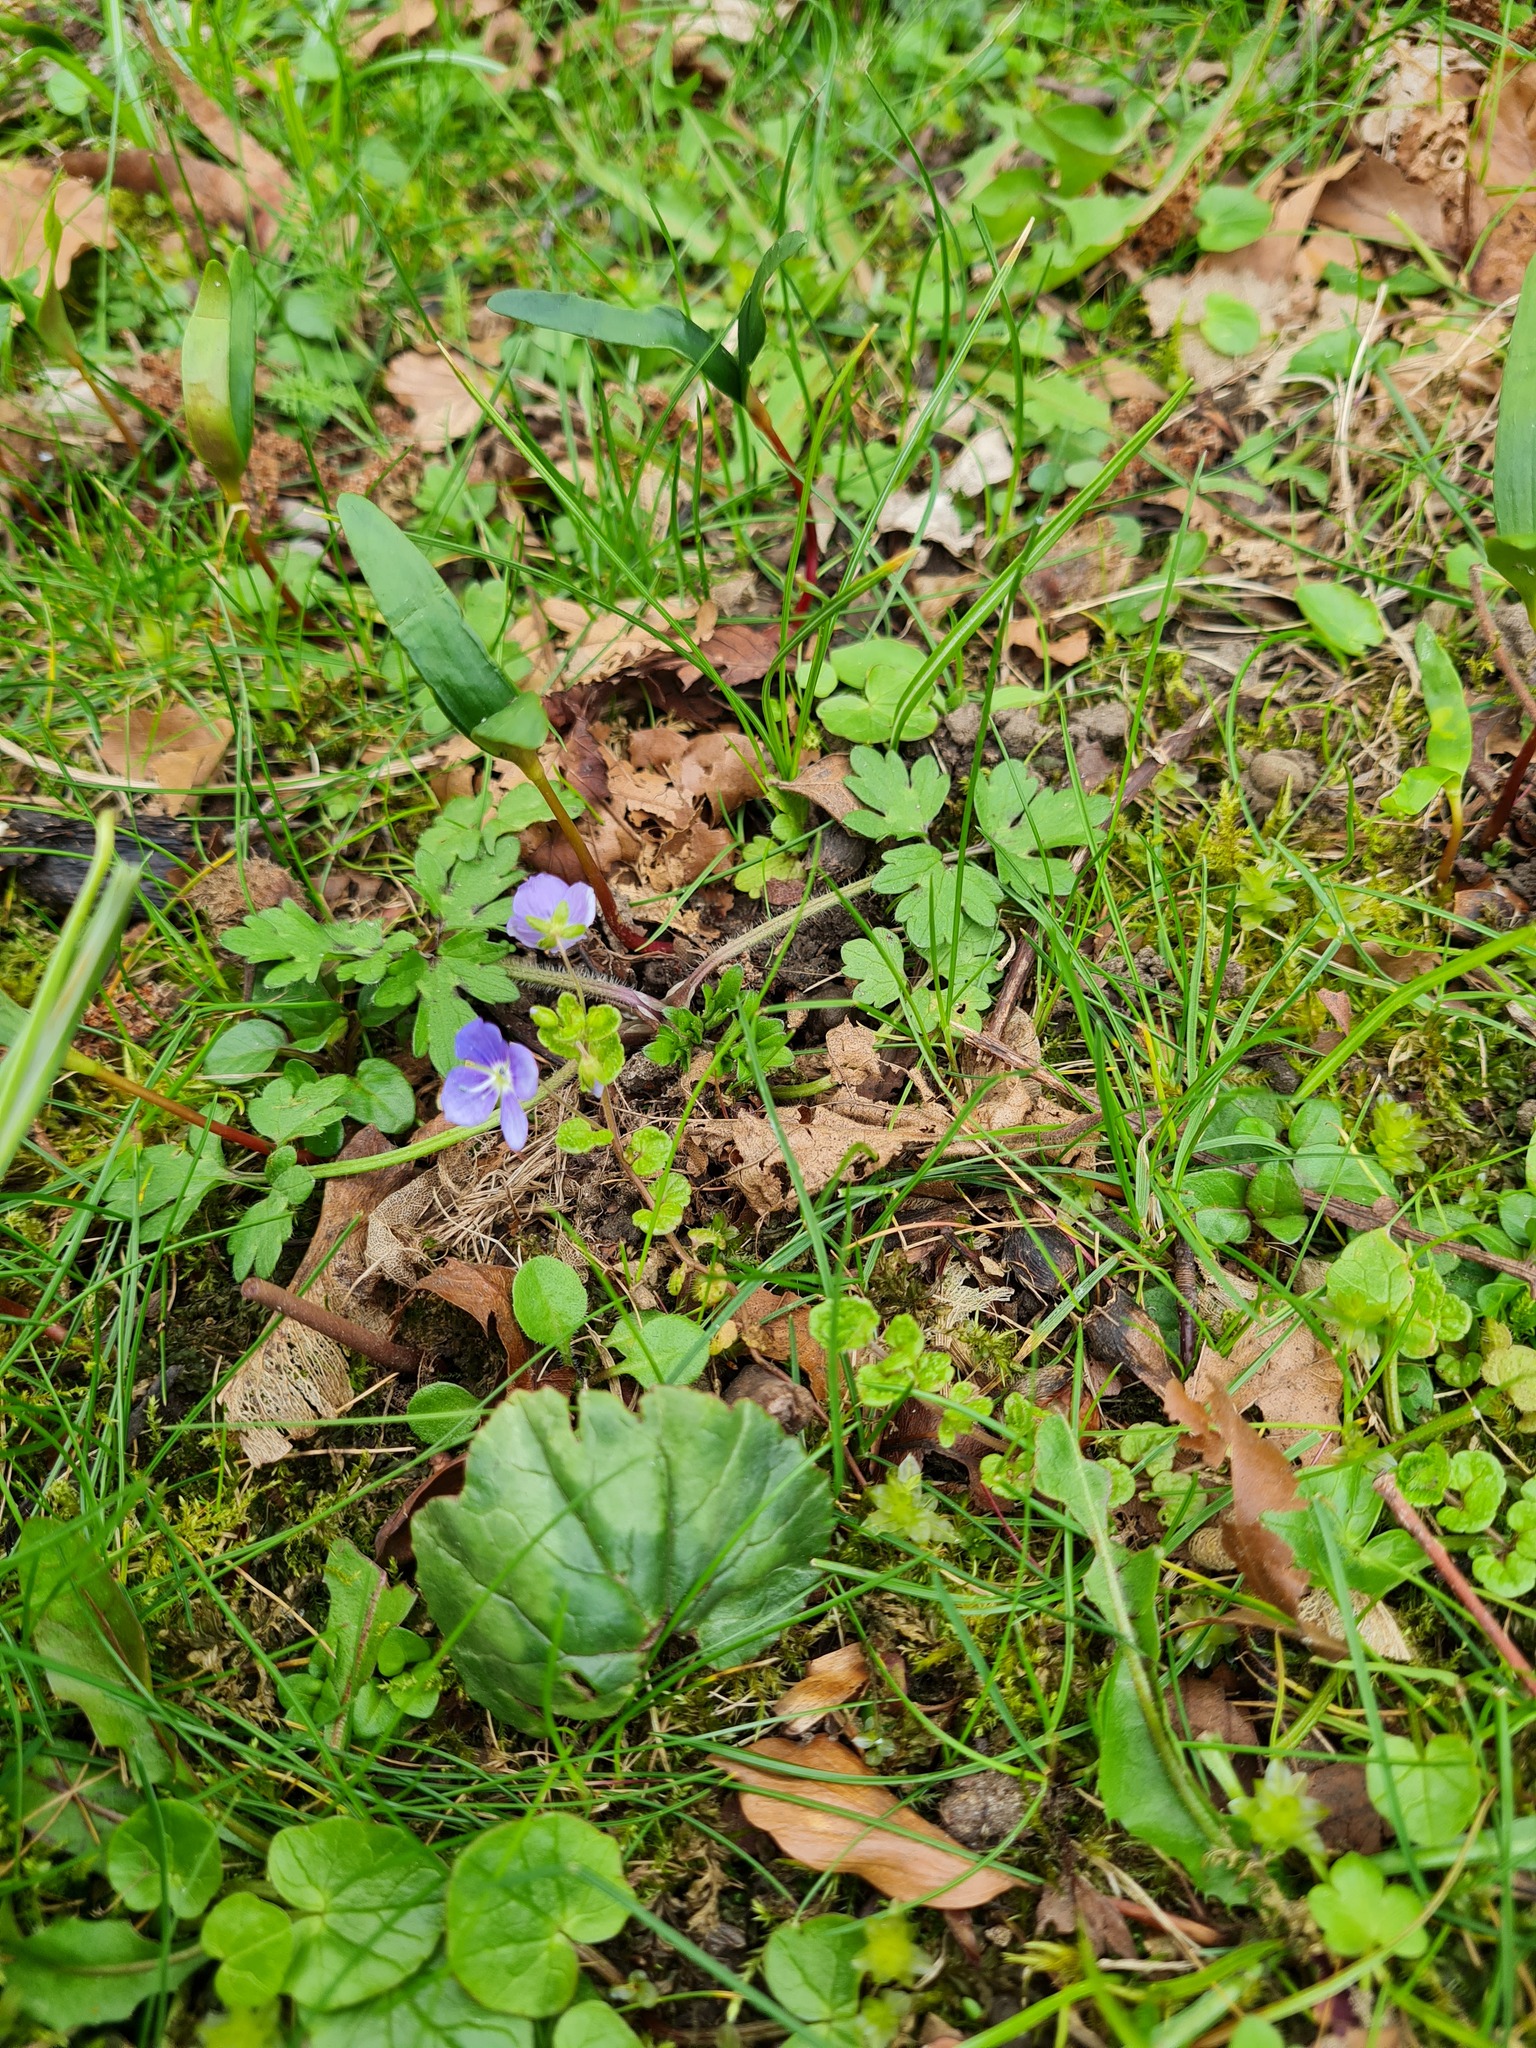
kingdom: Plantae
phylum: Tracheophyta
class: Magnoliopsida
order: Lamiales
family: Plantaginaceae
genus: Veronica
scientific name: Veronica filiformis
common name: Slender speedwell
